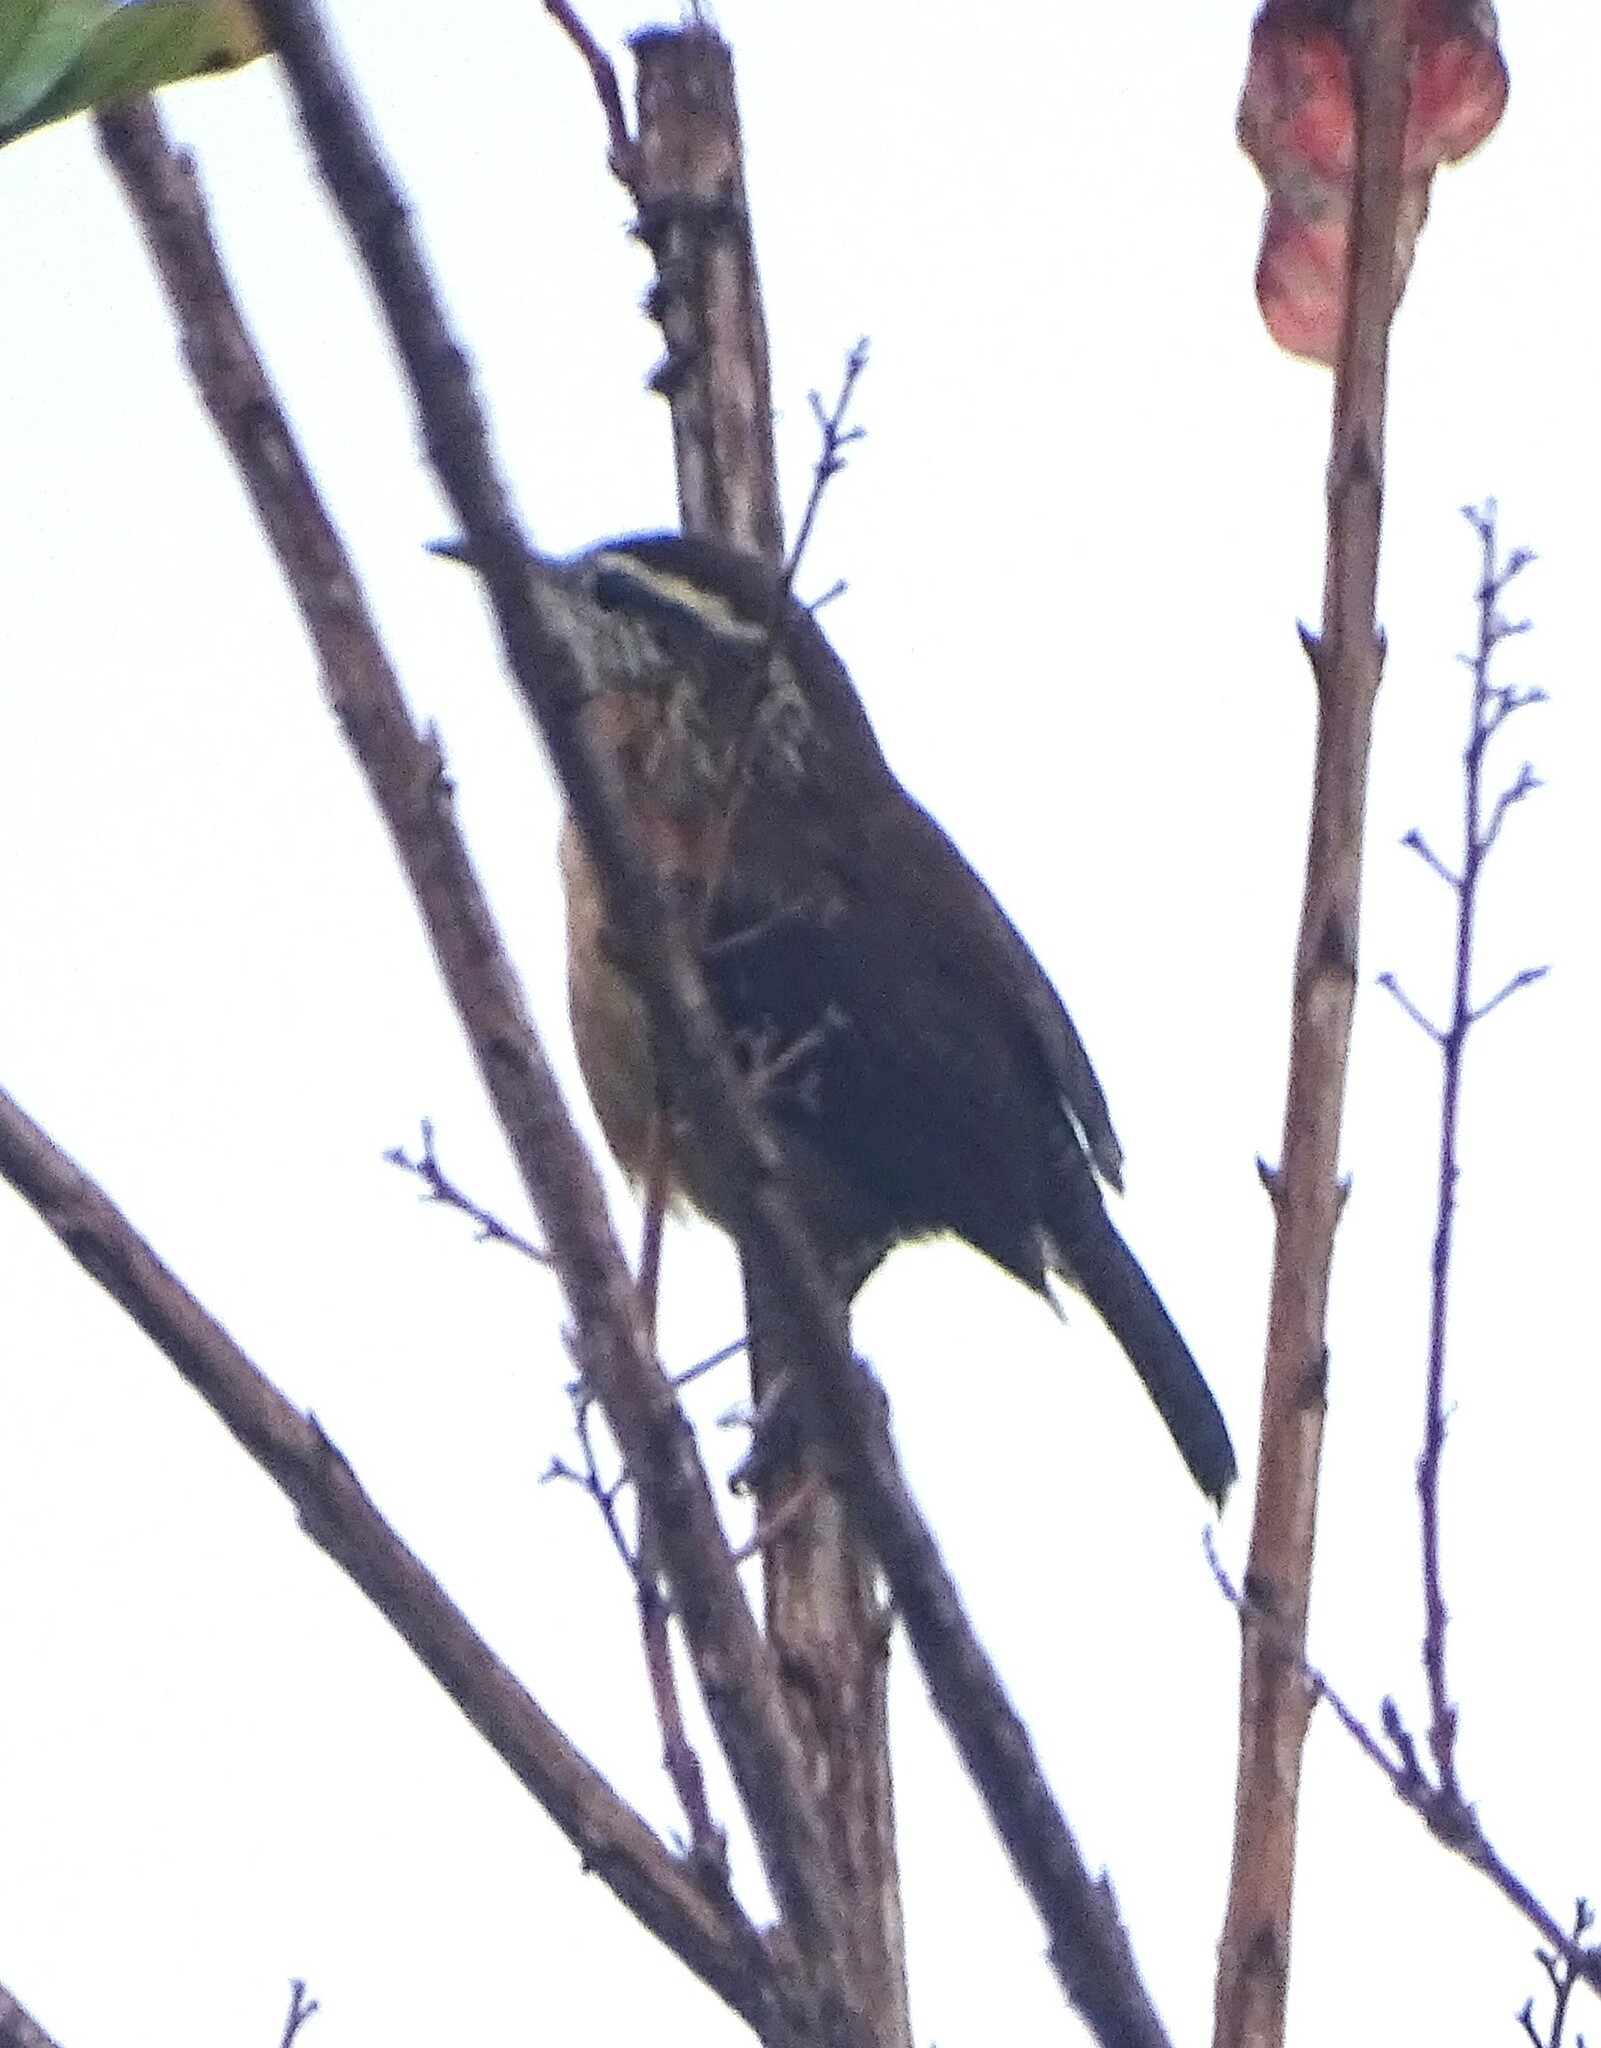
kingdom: Animalia
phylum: Chordata
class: Aves
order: Passeriformes
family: Troglodytidae
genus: Thryothorus
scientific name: Thryothorus ludovicianus
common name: Carolina wren
